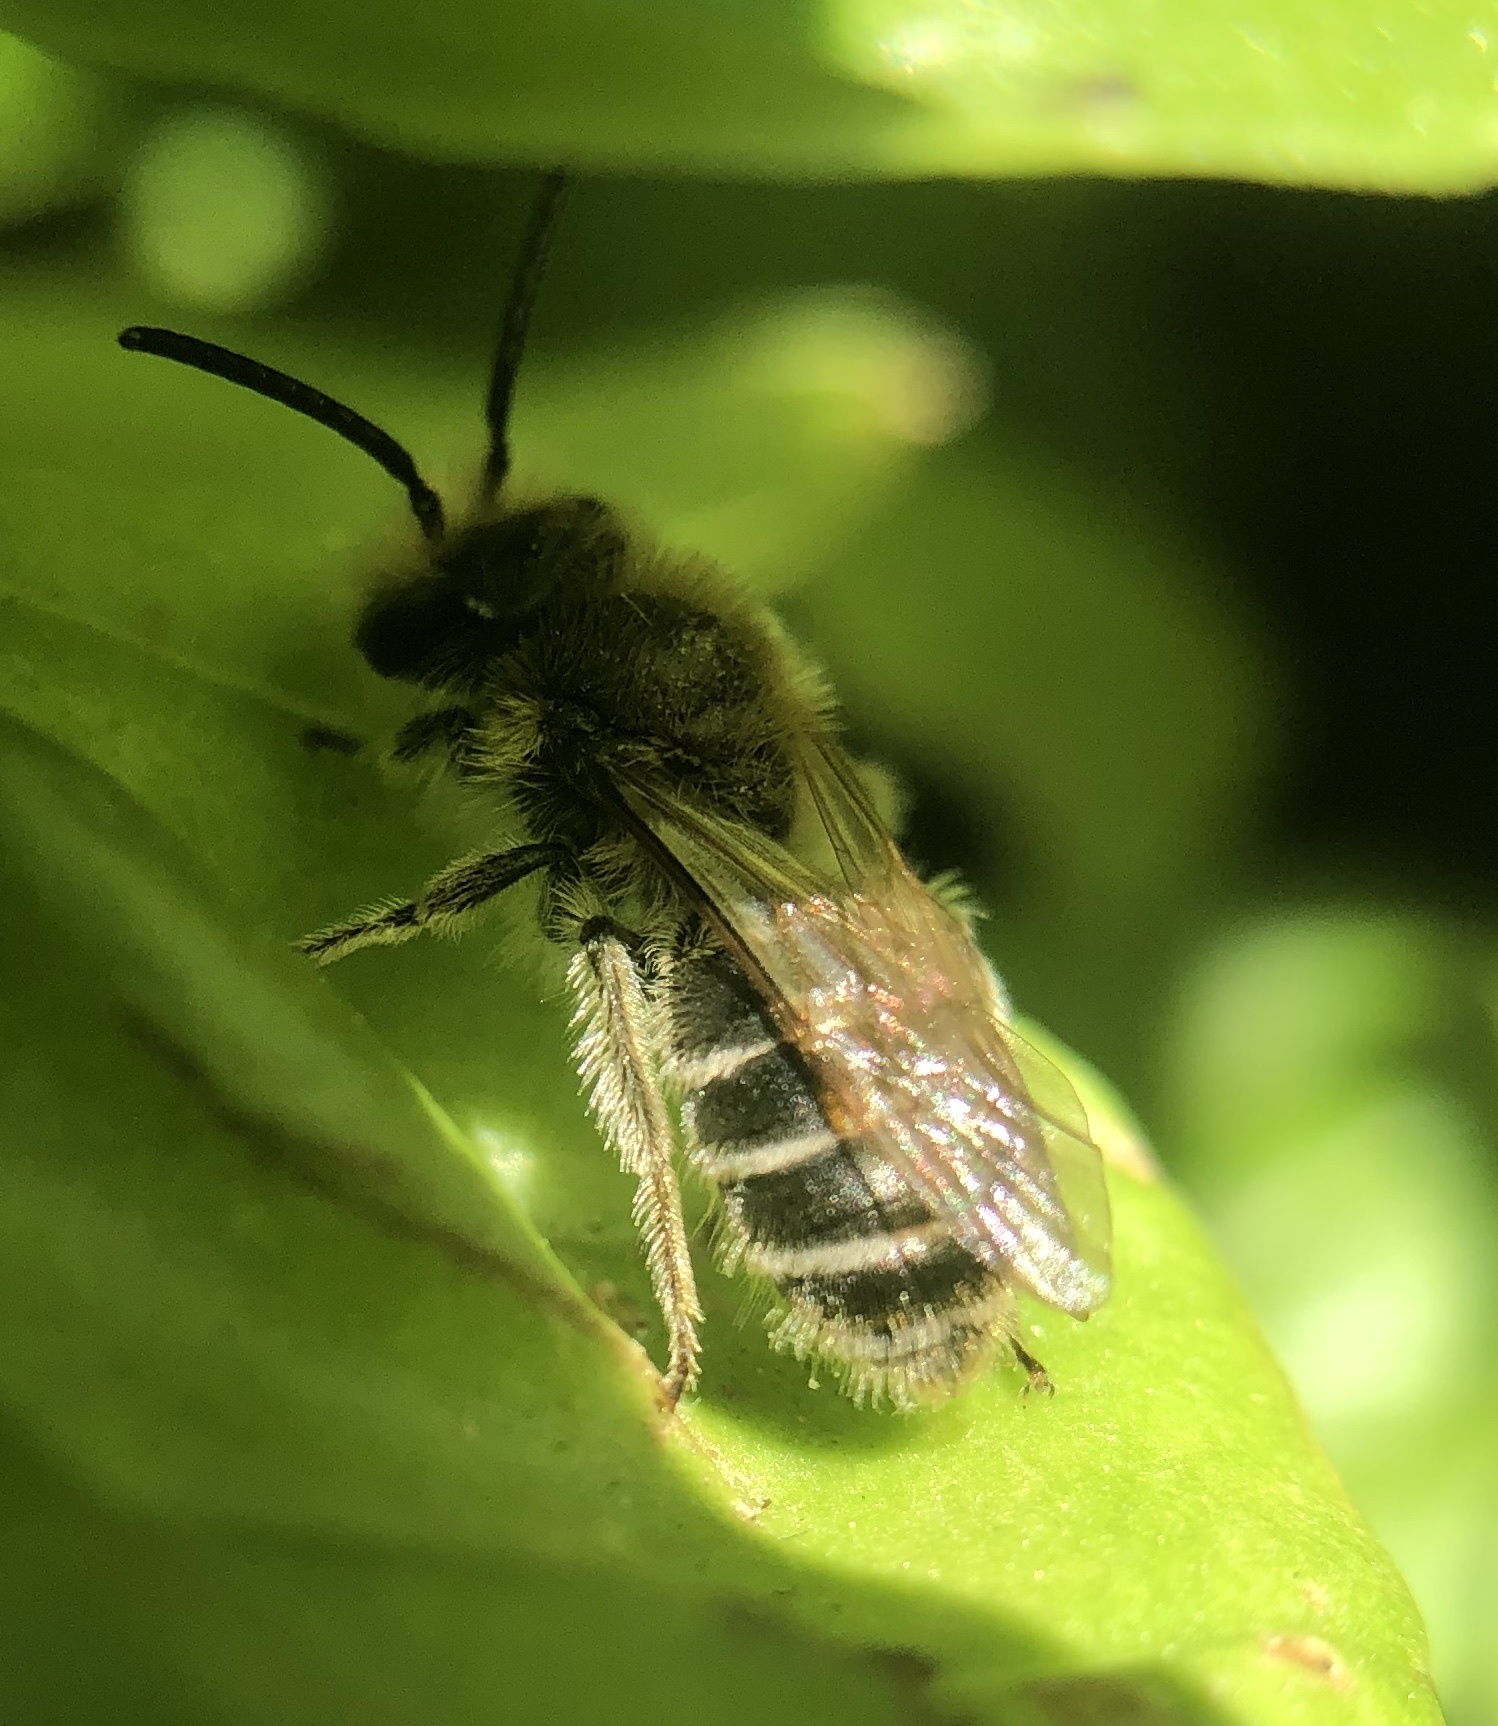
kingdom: Animalia
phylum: Arthropoda
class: Insecta
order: Hymenoptera
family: Andrenidae
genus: Andrena
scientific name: Andrena wilkella
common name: Wilke's mining bee
